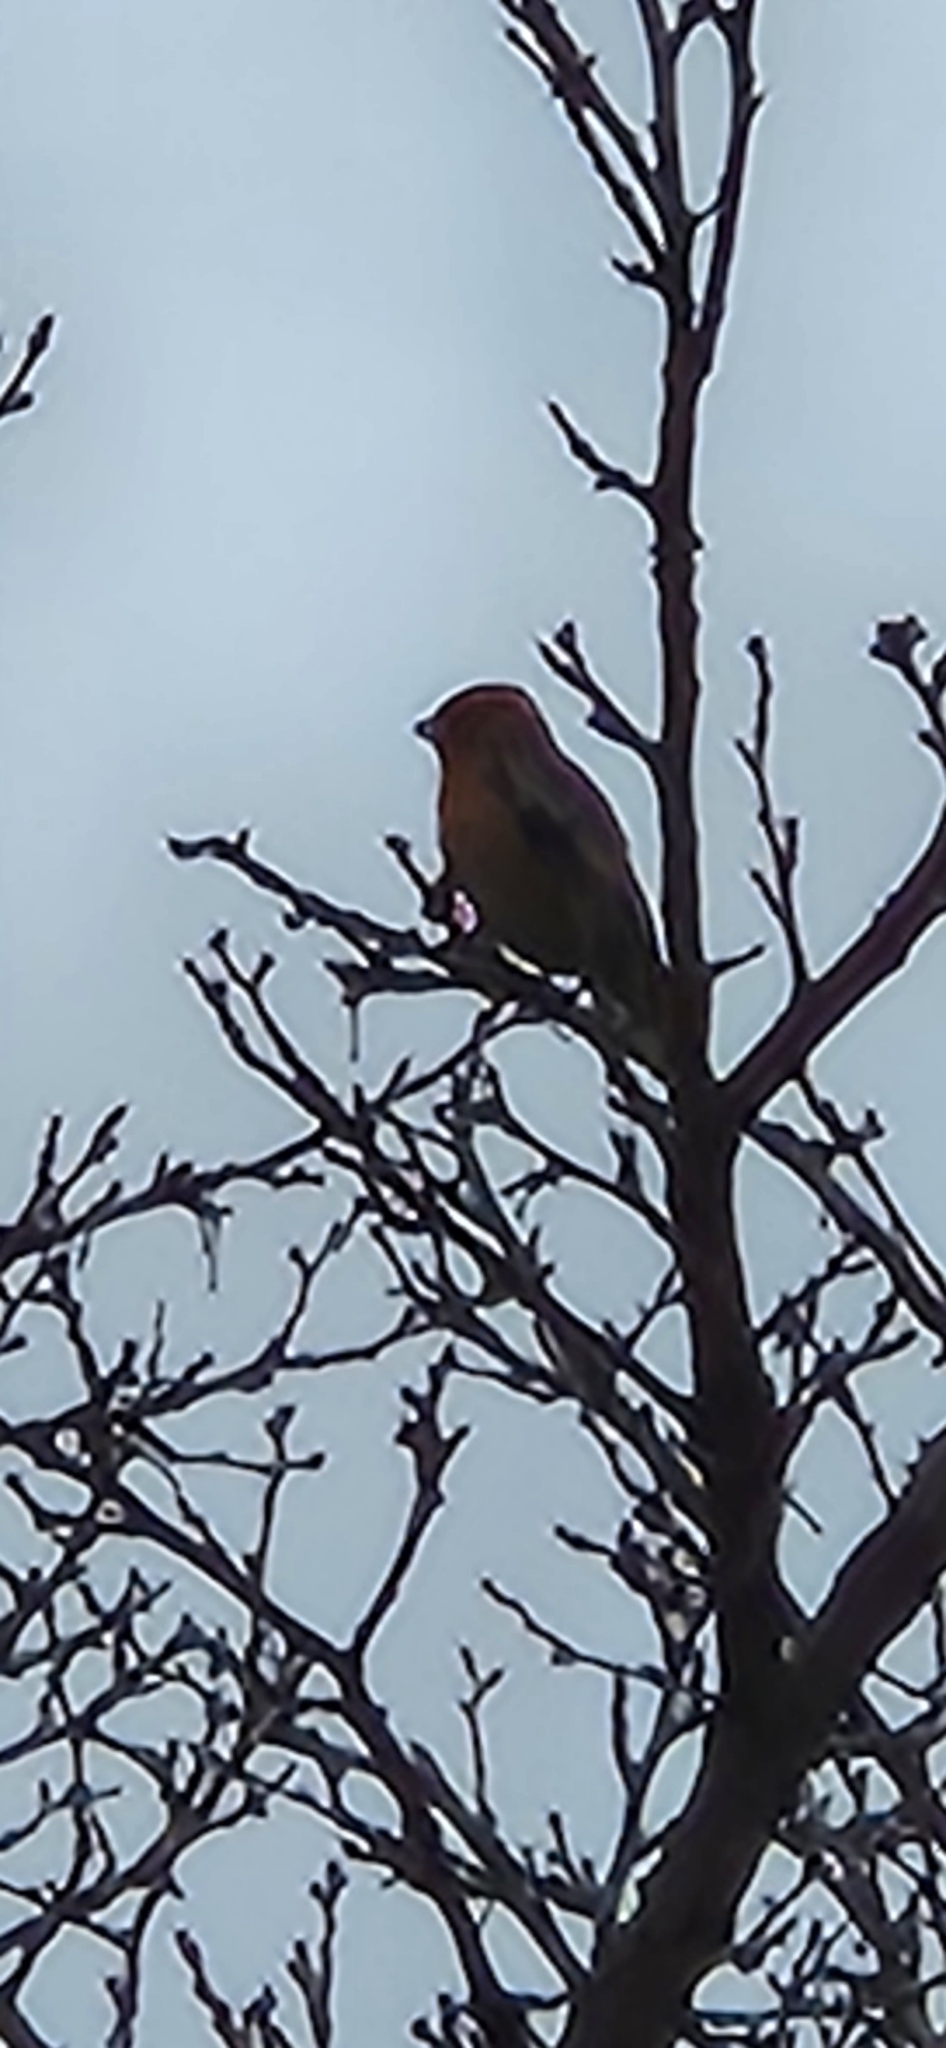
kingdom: Animalia
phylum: Chordata
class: Aves
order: Passeriformes
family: Fringillidae
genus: Haemorhous
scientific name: Haemorhous mexicanus
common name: House finch
